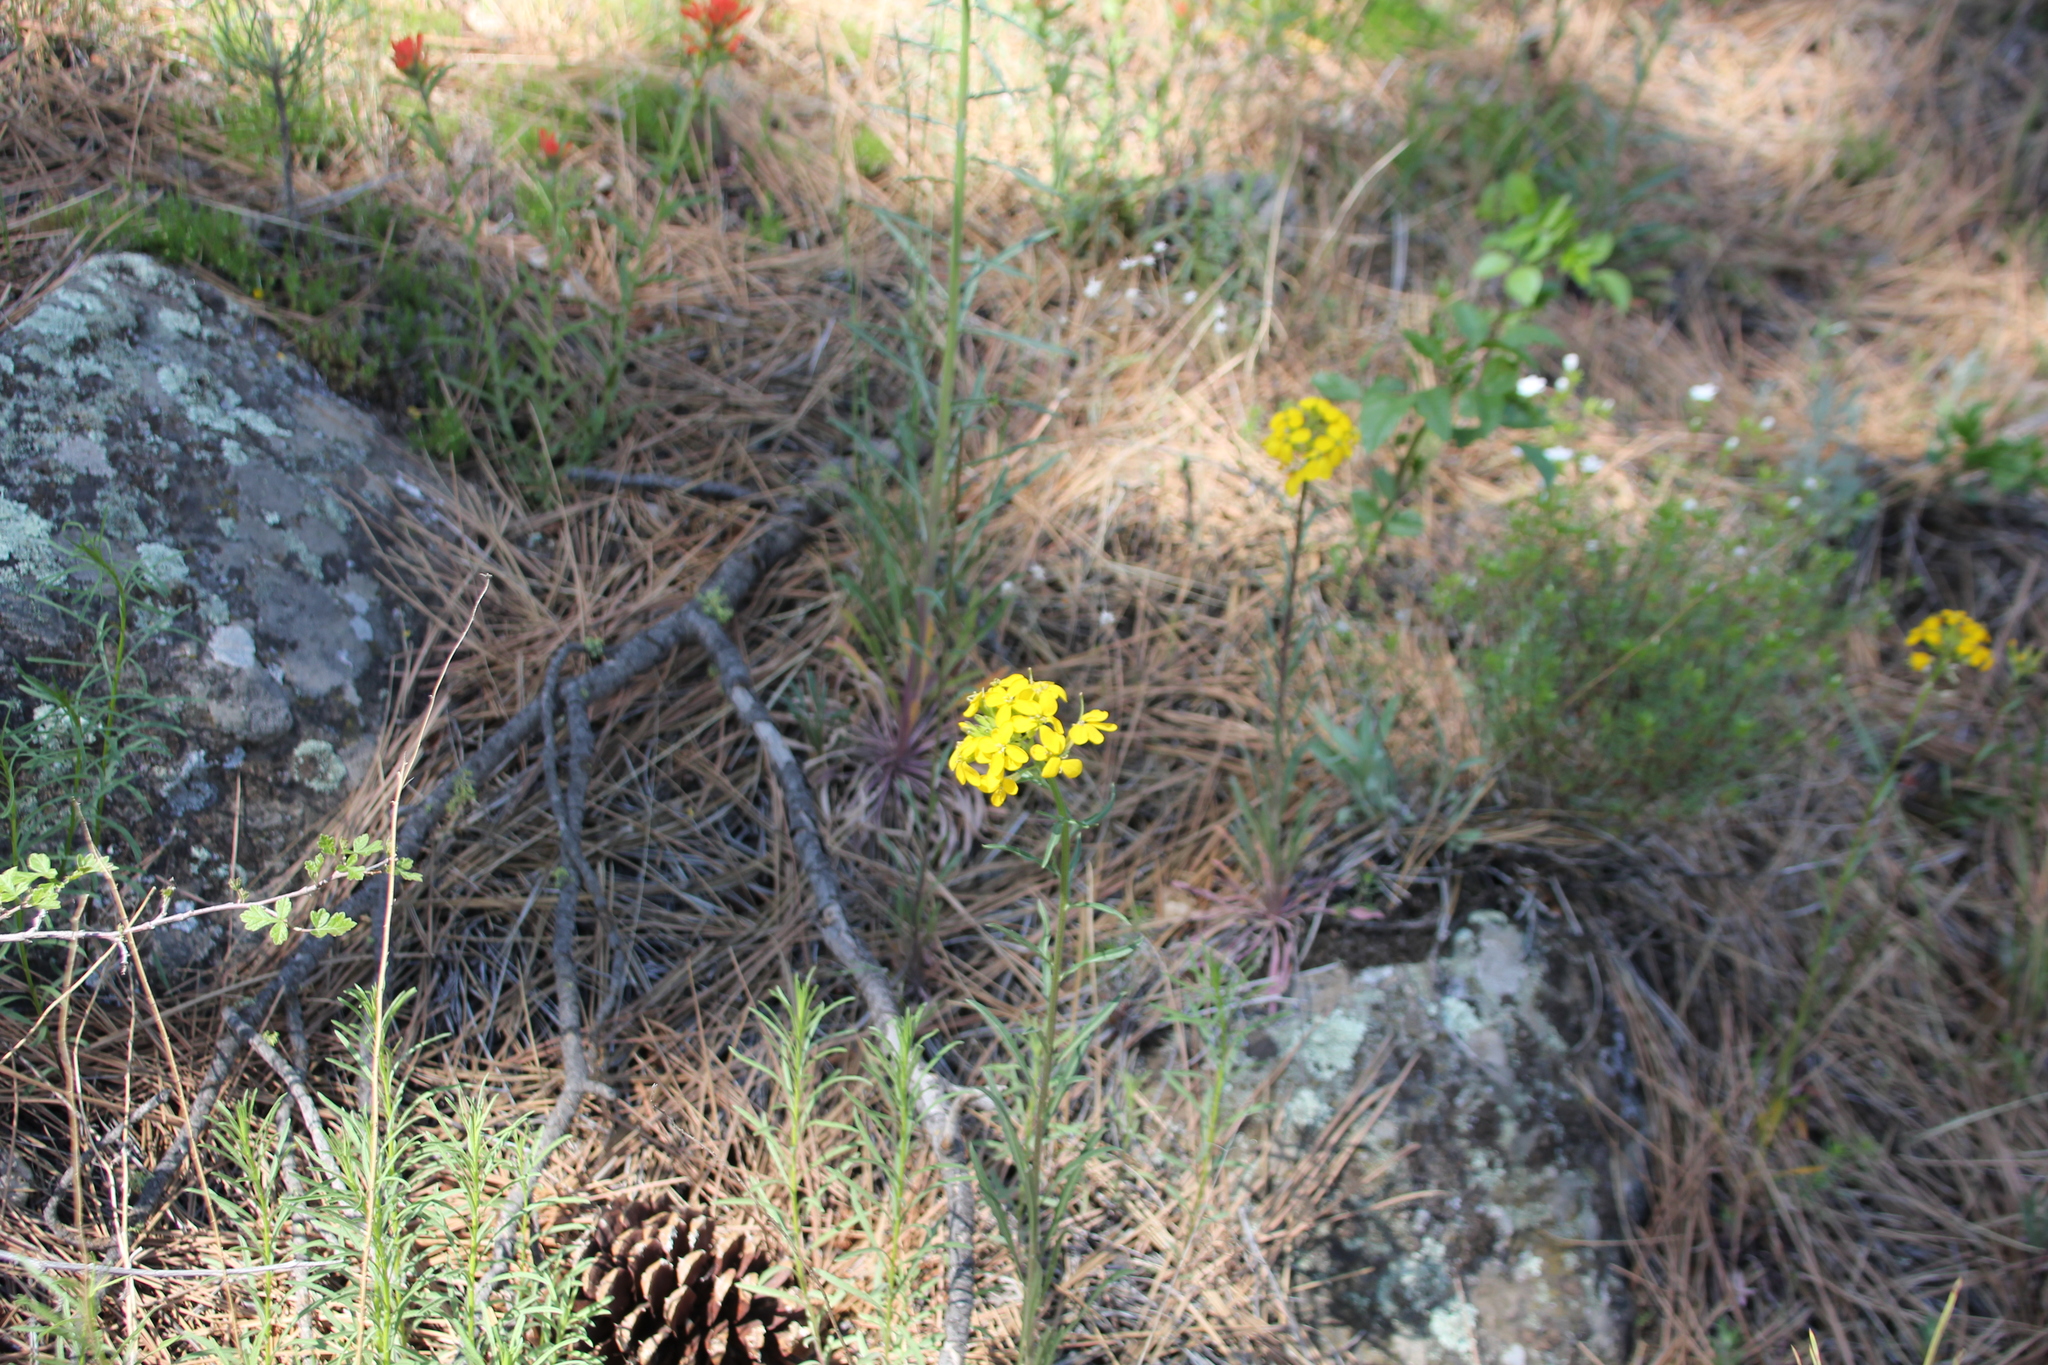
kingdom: Plantae
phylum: Tracheophyta
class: Magnoliopsida
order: Brassicales
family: Brassicaceae
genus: Erysimum
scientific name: Erysimum capitatum
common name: Western wallflower
